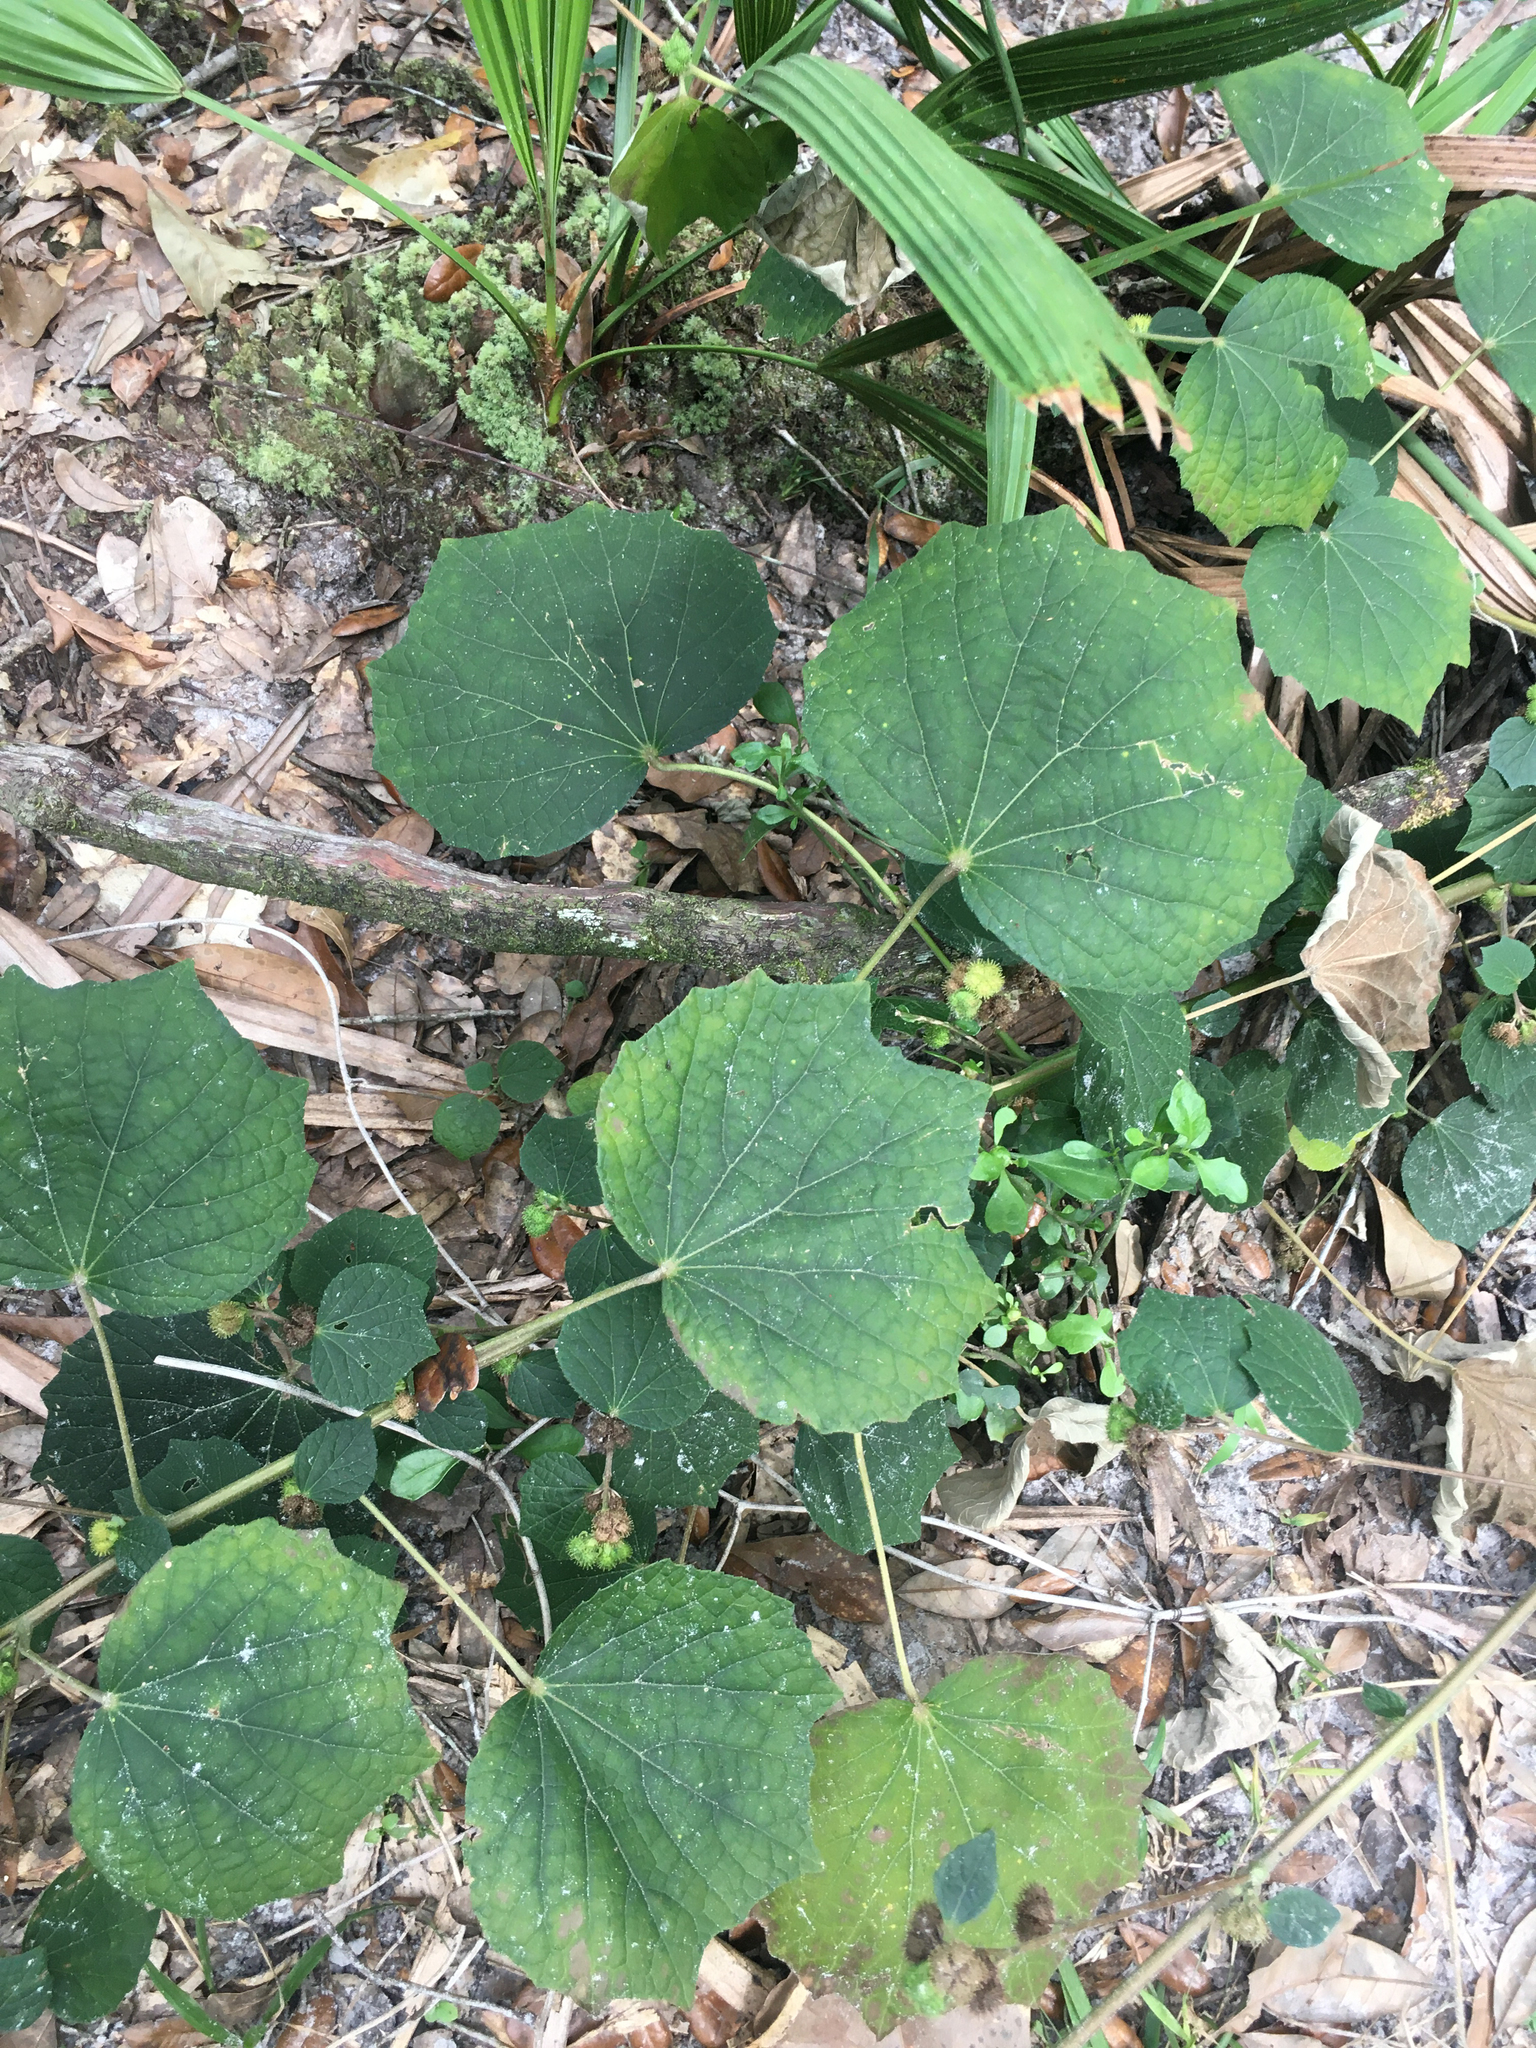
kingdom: Plantae
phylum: Tracheophyta
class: Magnoliopsida
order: Malvales
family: Malvaceae
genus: Urena
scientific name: Urena lobata
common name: Caesarweed
